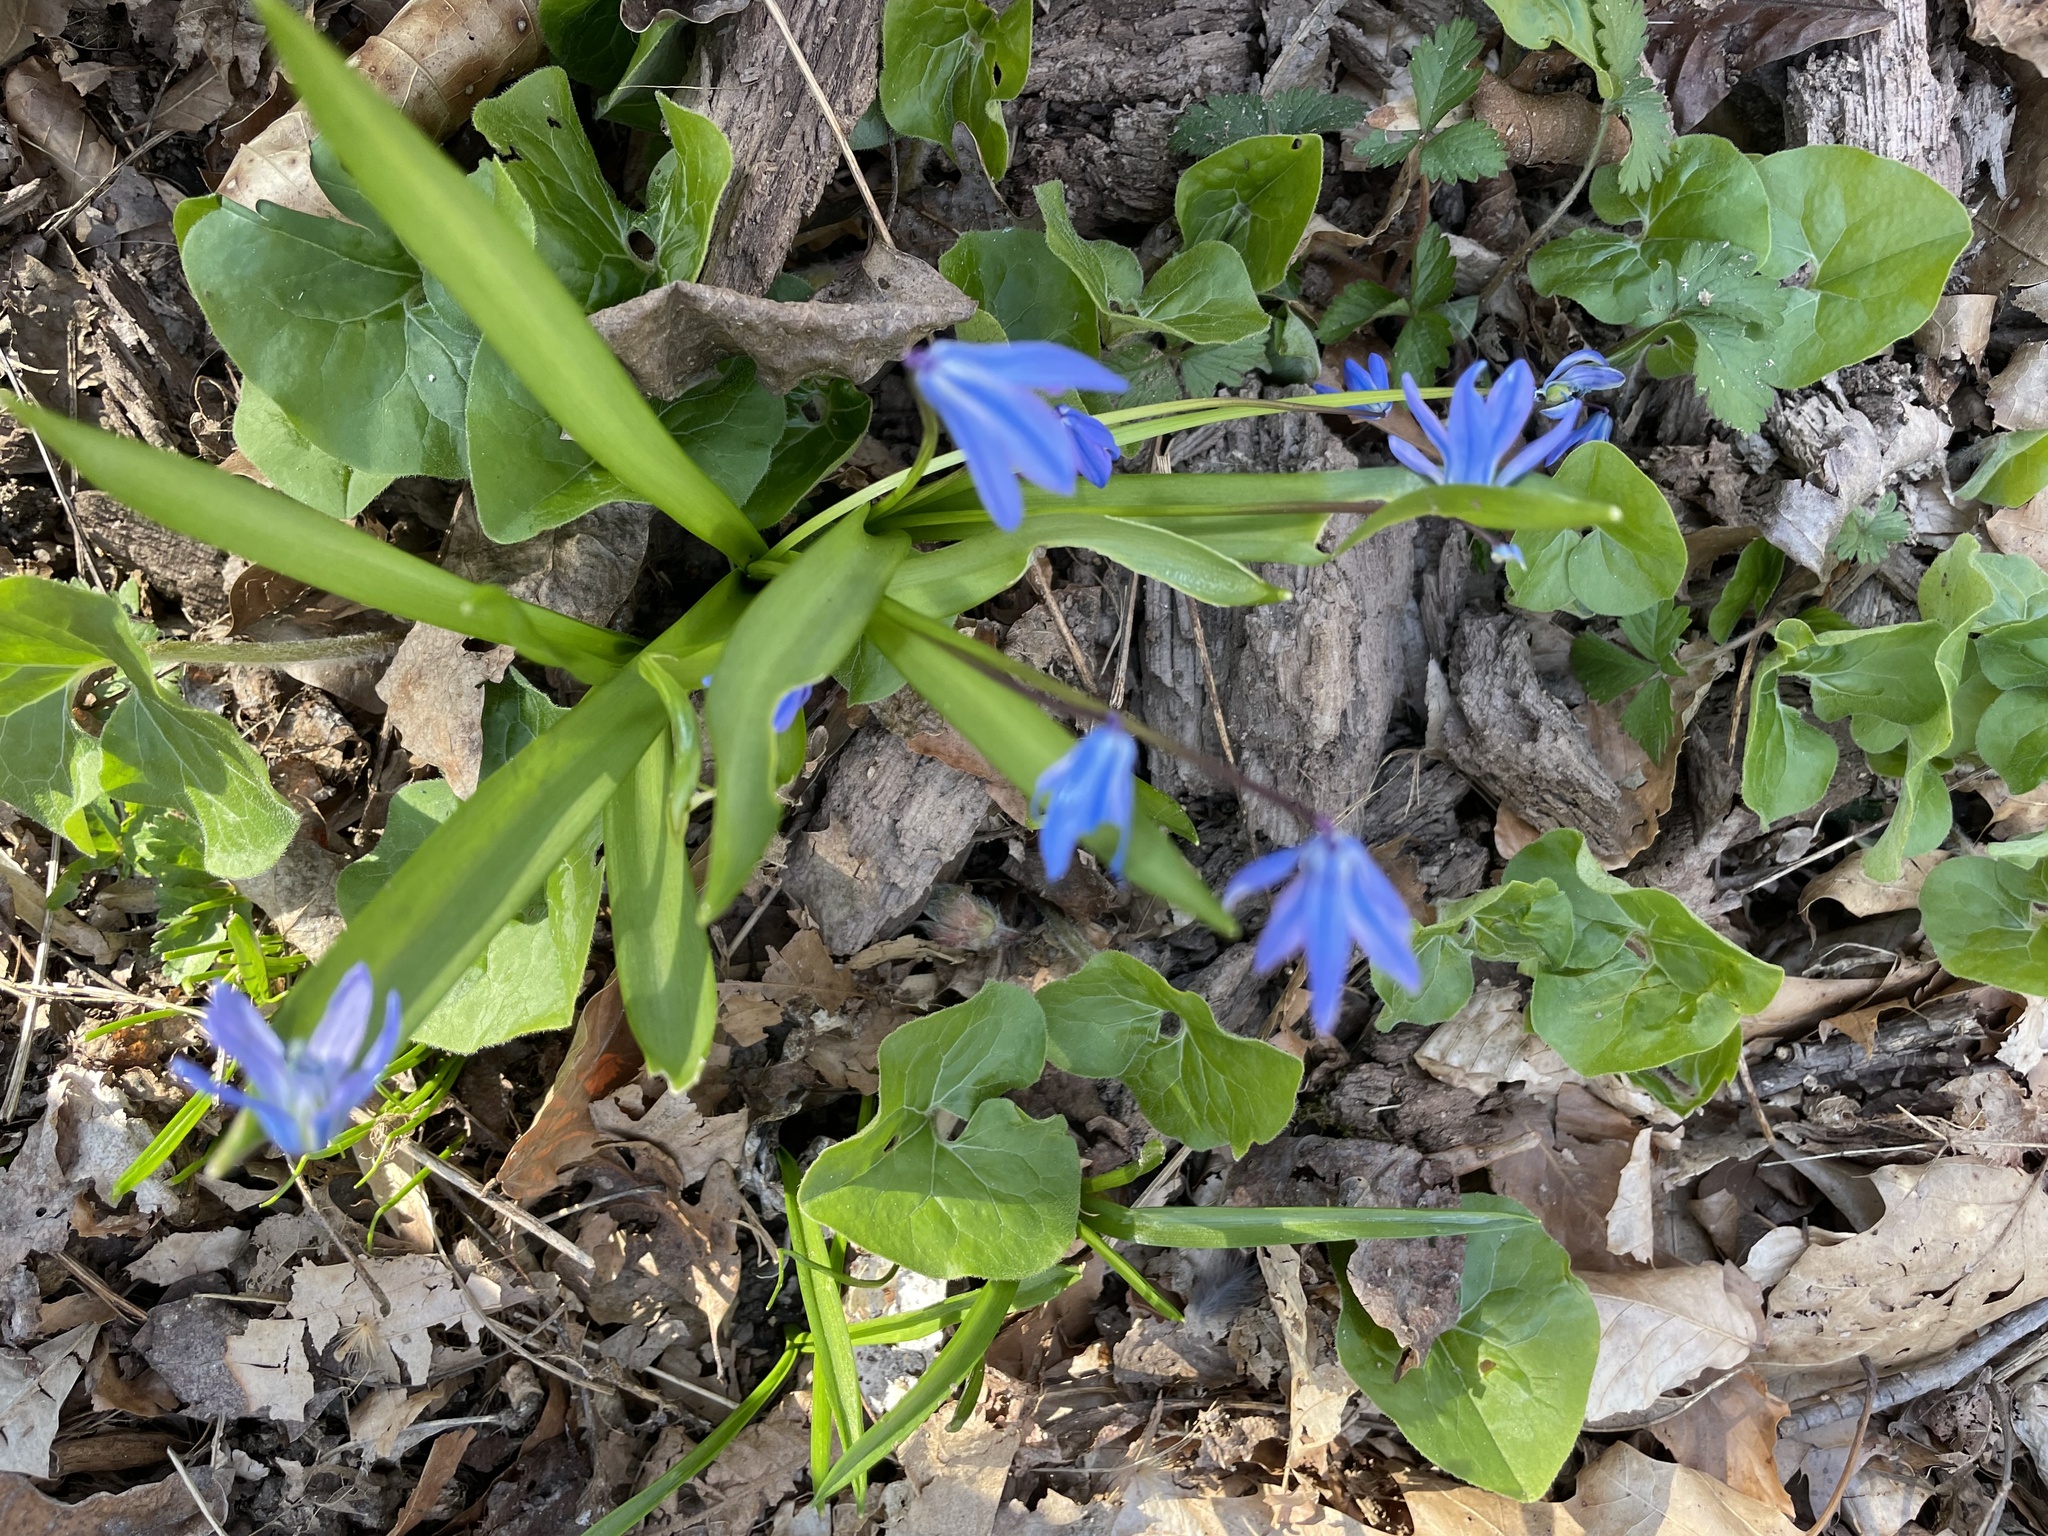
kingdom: Plantae
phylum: Tracheophyta
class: Liliopsida
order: Asparagales
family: Asparagaceae
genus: Scilla
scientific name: Scilla siberica
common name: Siberian squill
